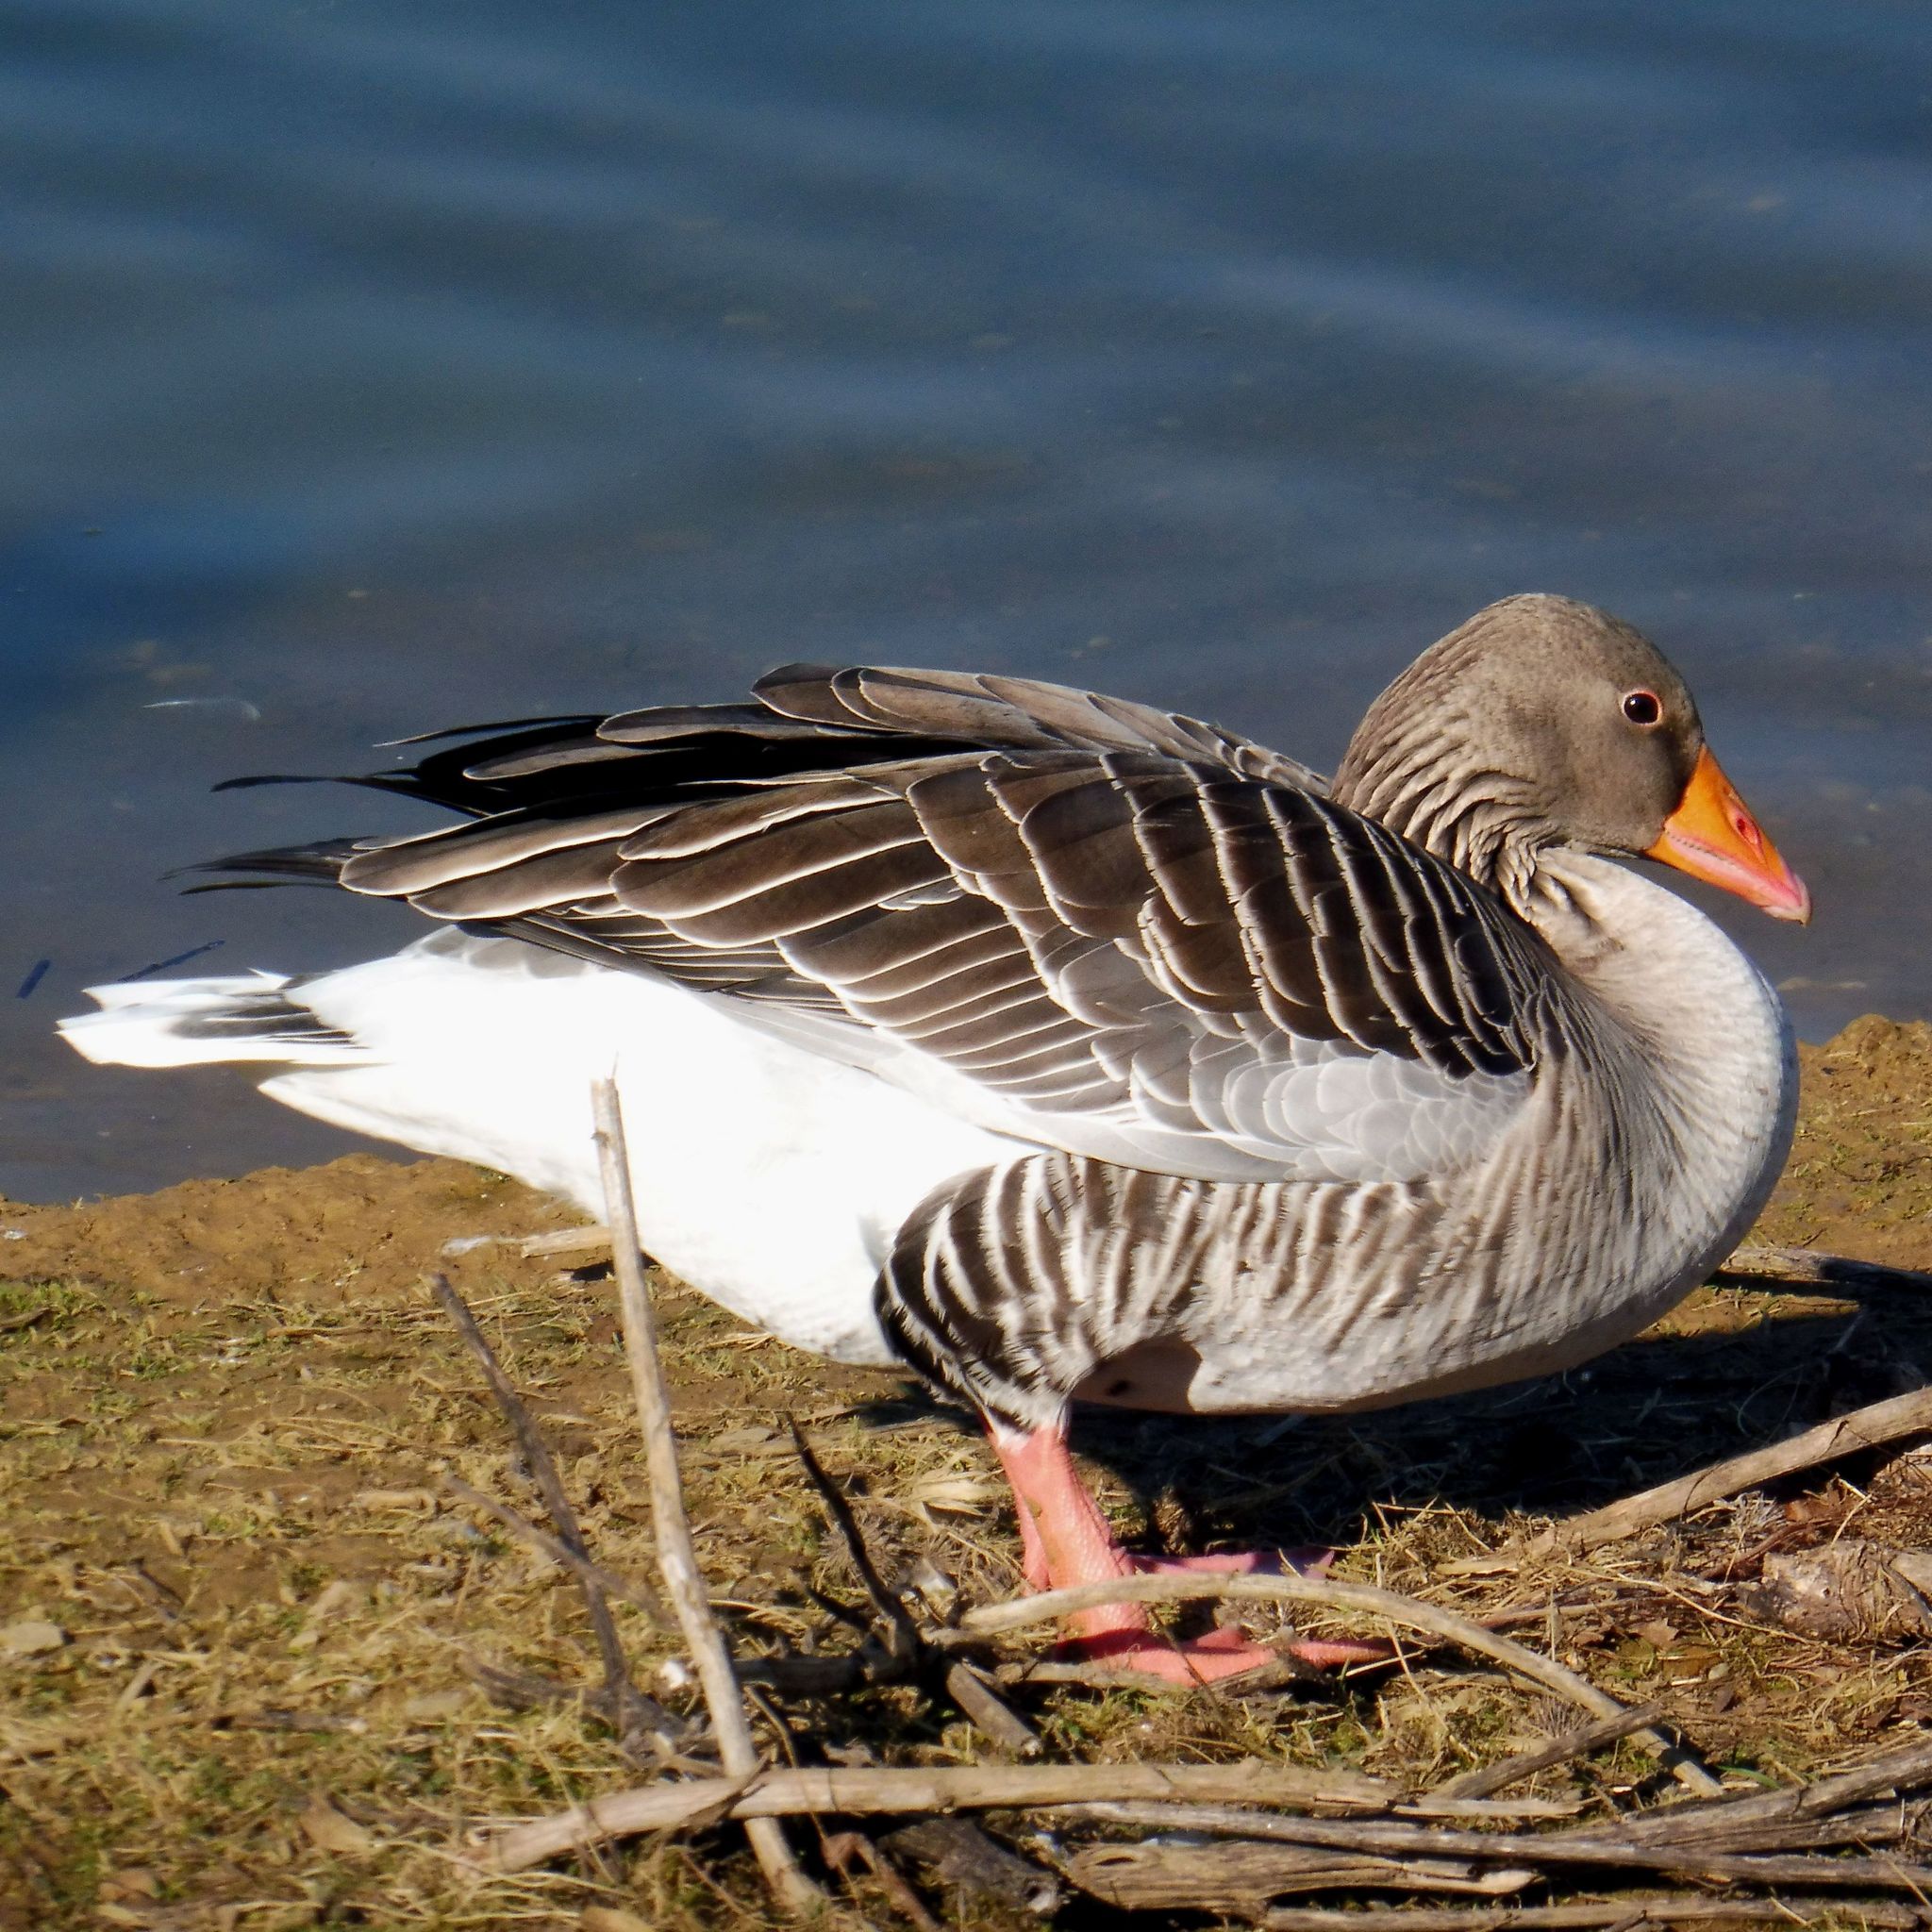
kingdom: Animalia
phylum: Chordata
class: Aves
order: Anseriformes
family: Anatidae
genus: Anser
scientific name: Anser anser
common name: Greylag goose
